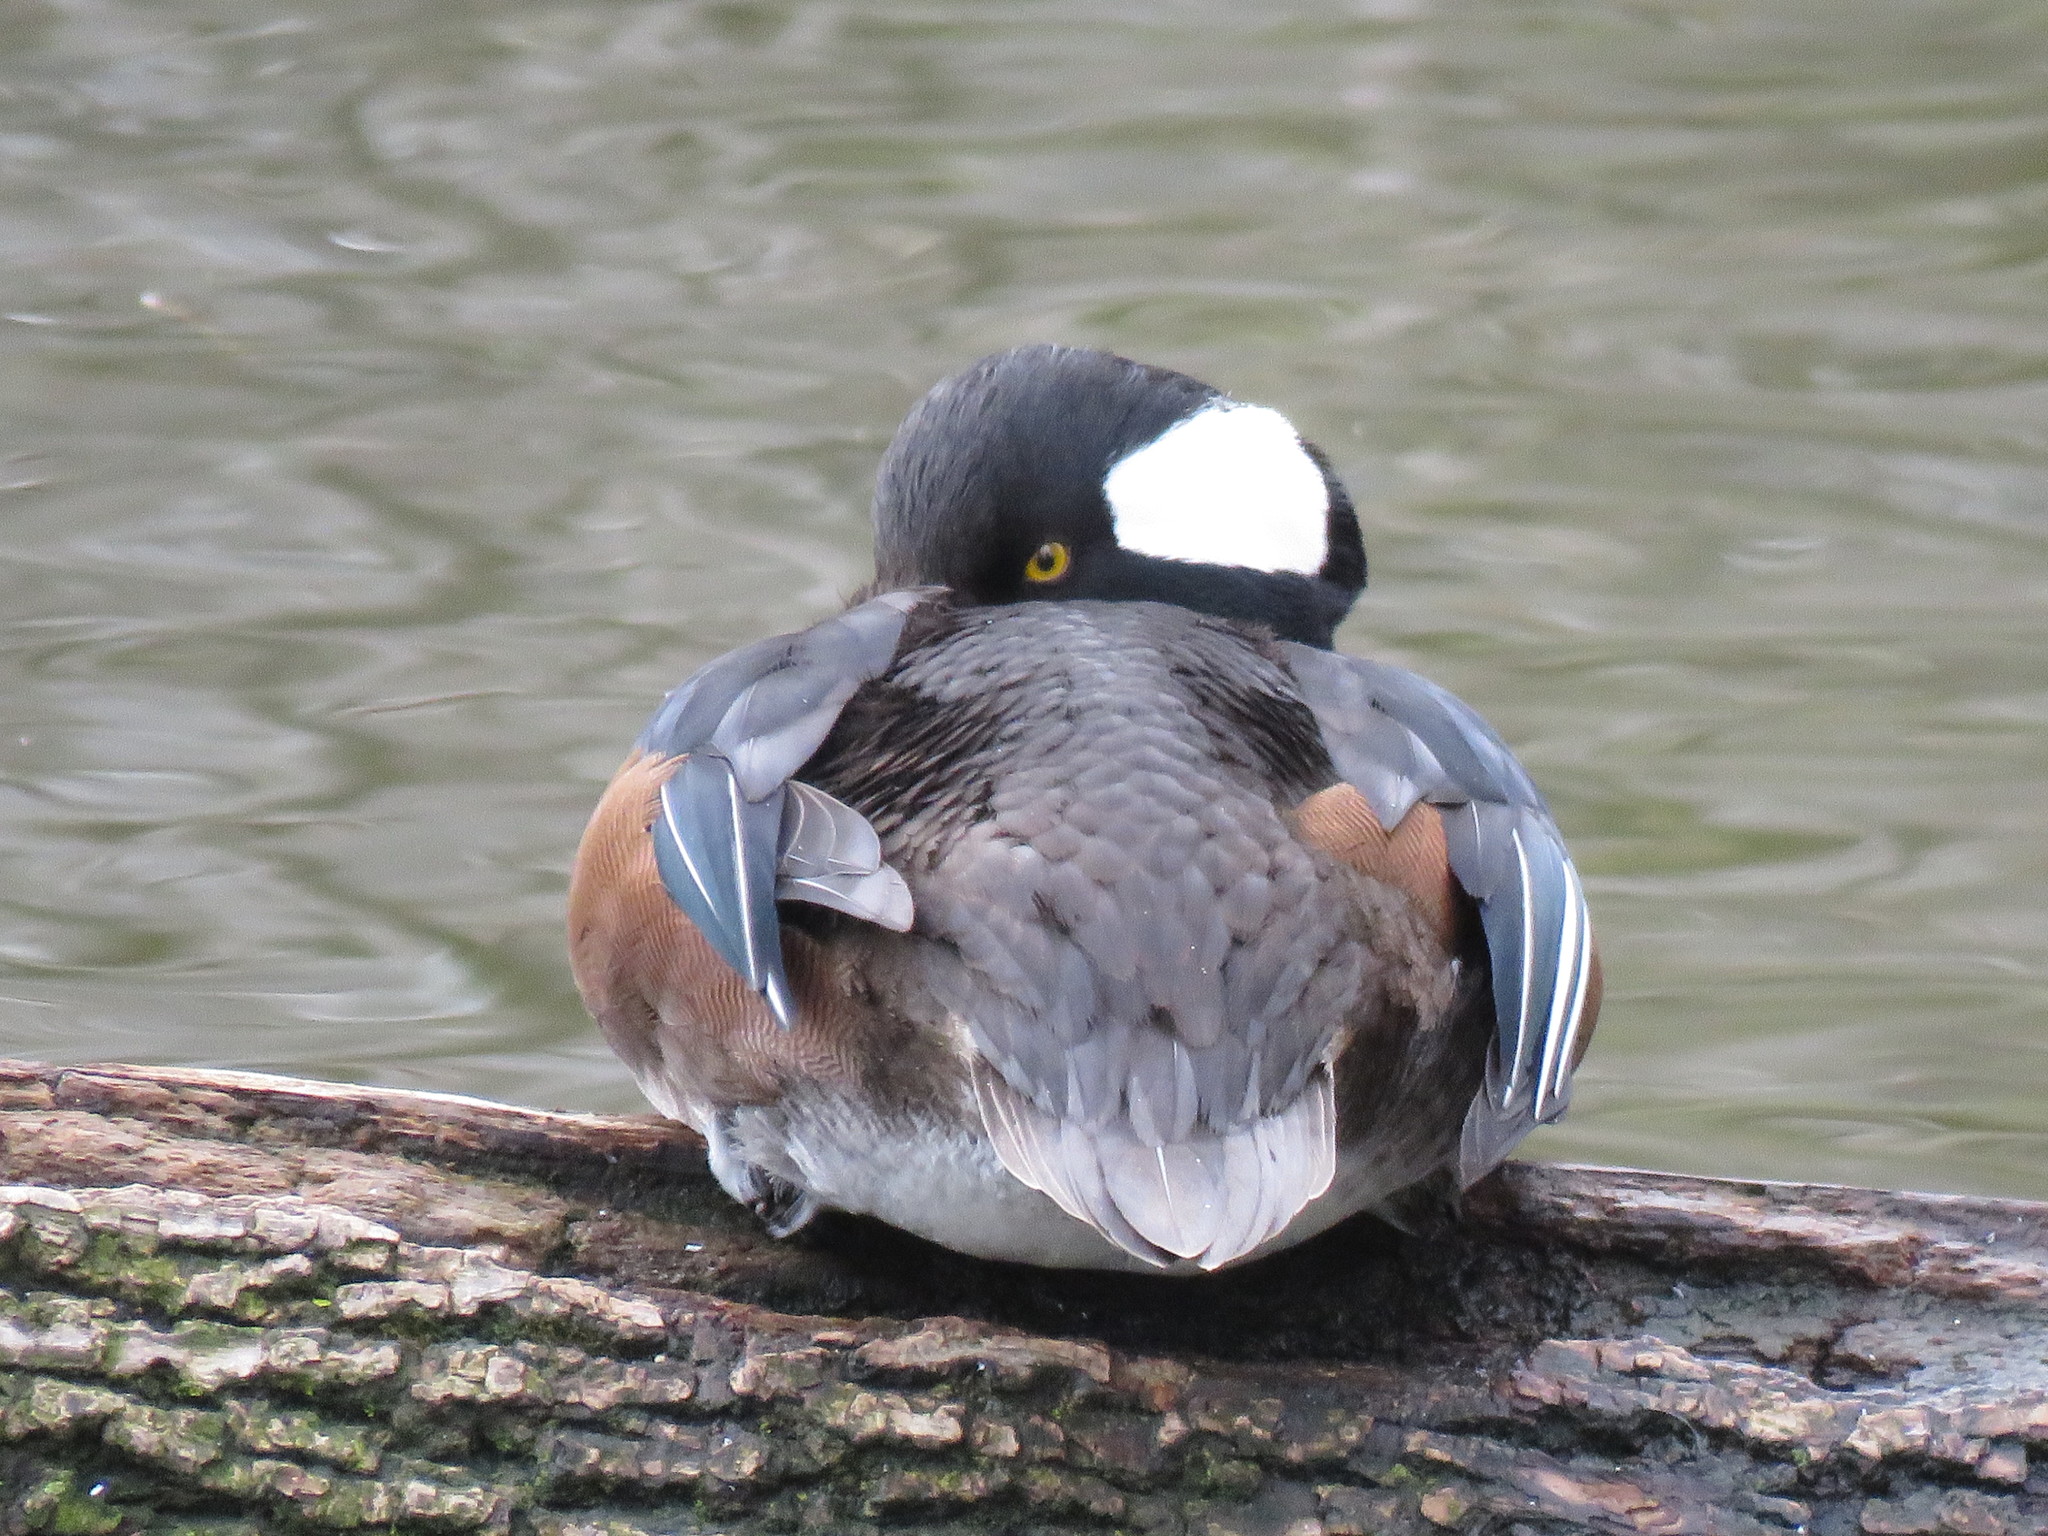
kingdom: Animalia
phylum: Chordata
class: Aves
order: Anseriformes
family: Anatidae
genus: Lophodytes
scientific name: Lophodytes cucullatus
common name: Hooded merganser
